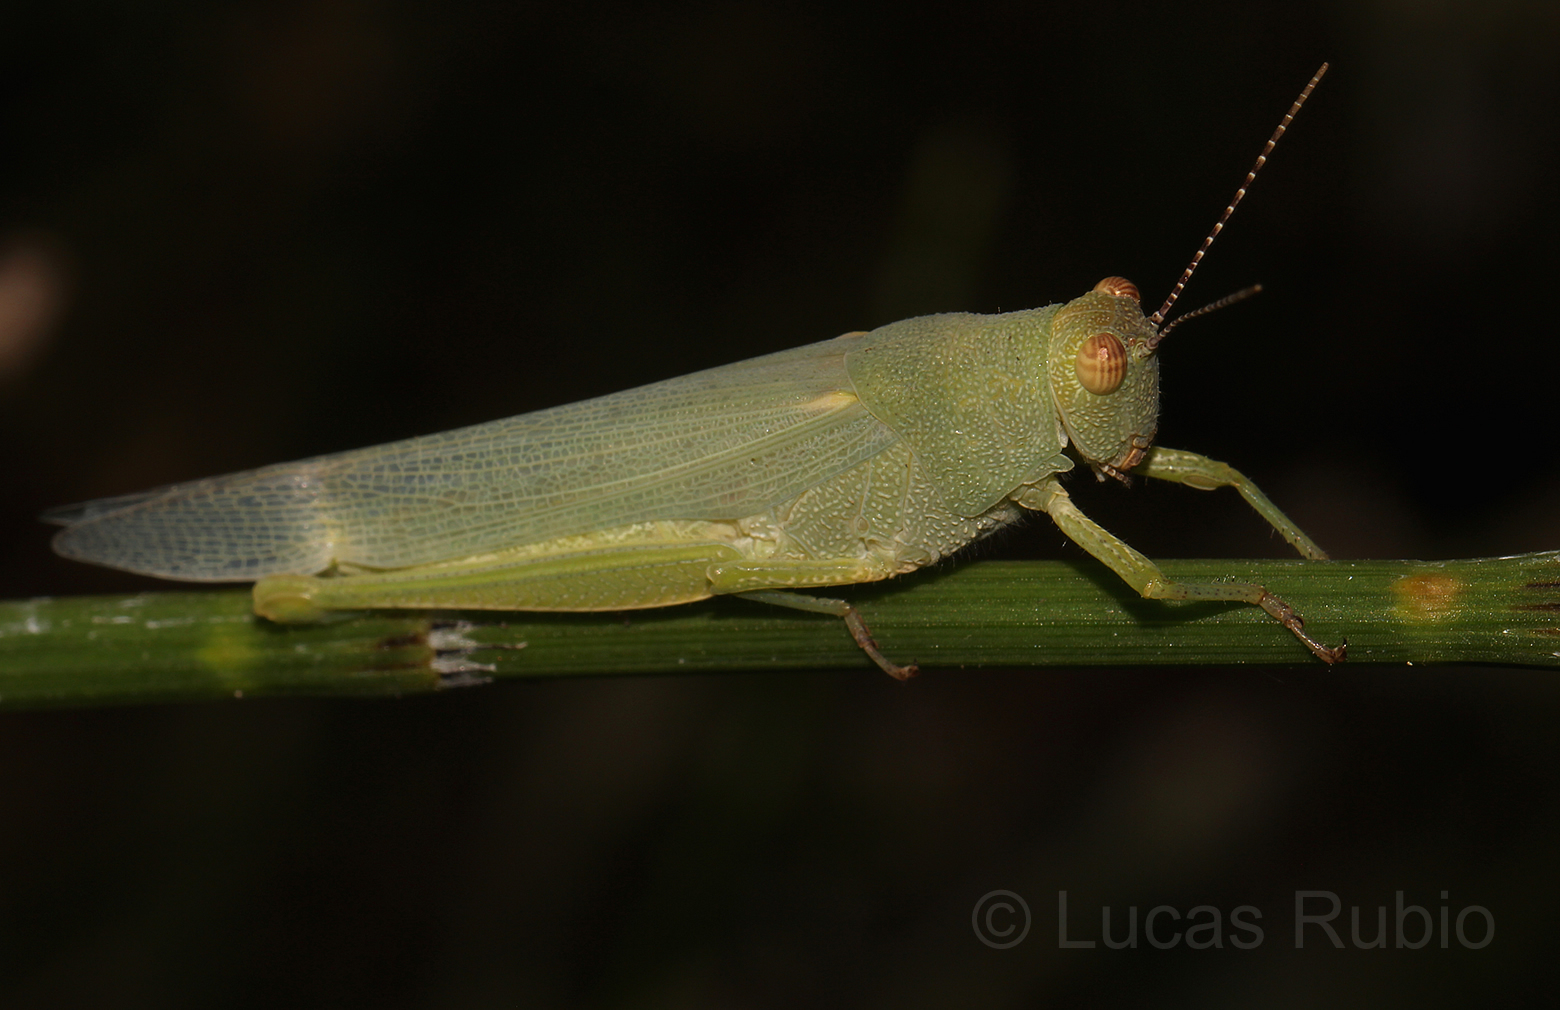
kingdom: Animalia
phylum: Arthropoda
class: Insecta
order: Orthoptera
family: Ommexechidae
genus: Clarazella
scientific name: Clarazella patagona
